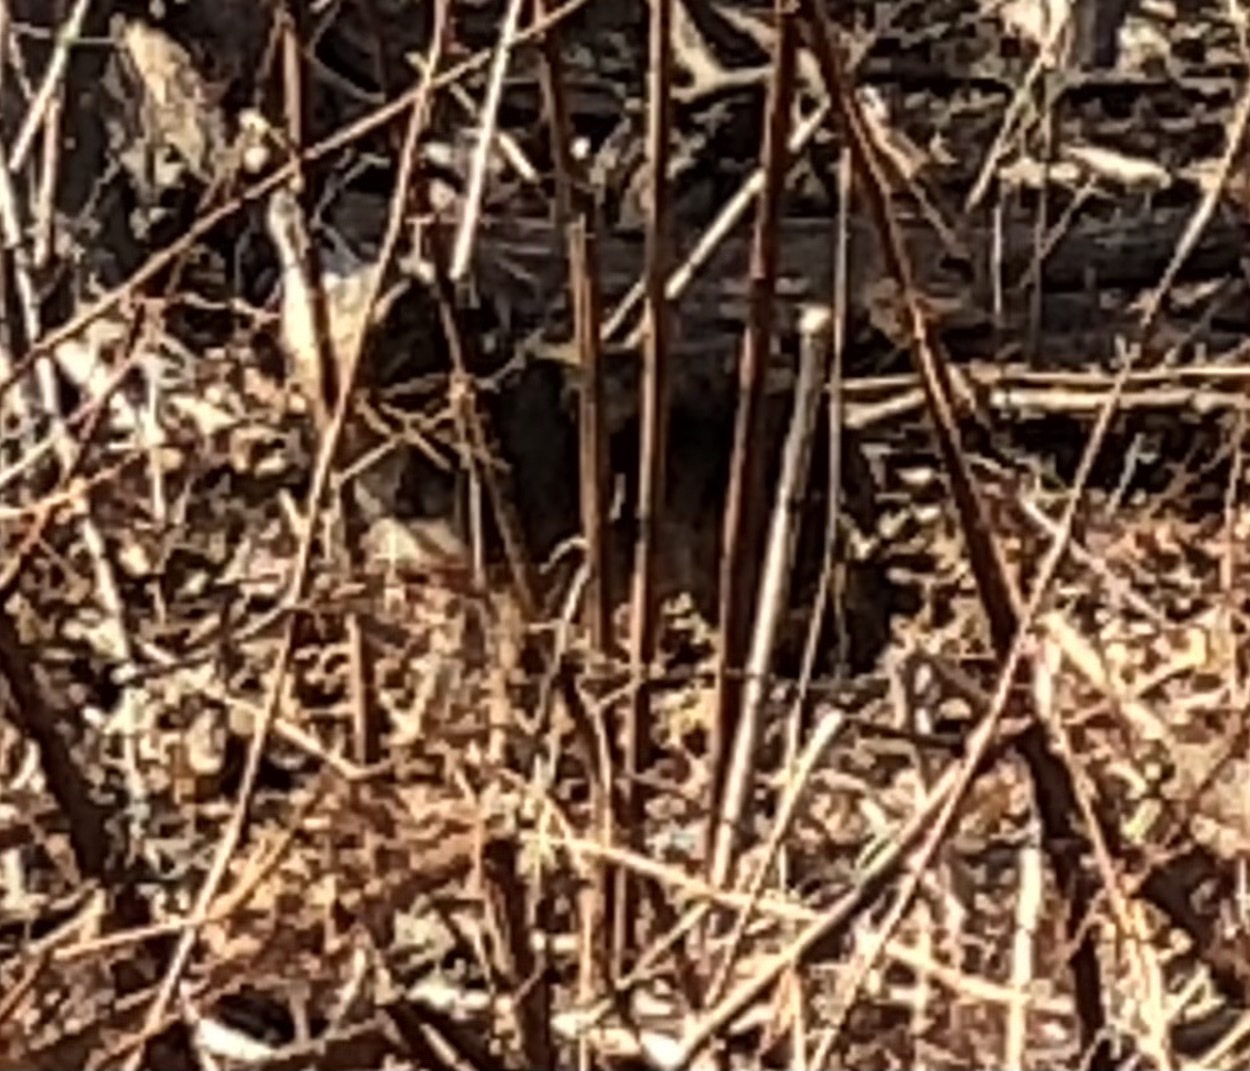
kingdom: Animalia
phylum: Chordata
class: Mammalia
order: Carnivora
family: Canidae
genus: Canis
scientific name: Canis latrans
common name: Coyote
